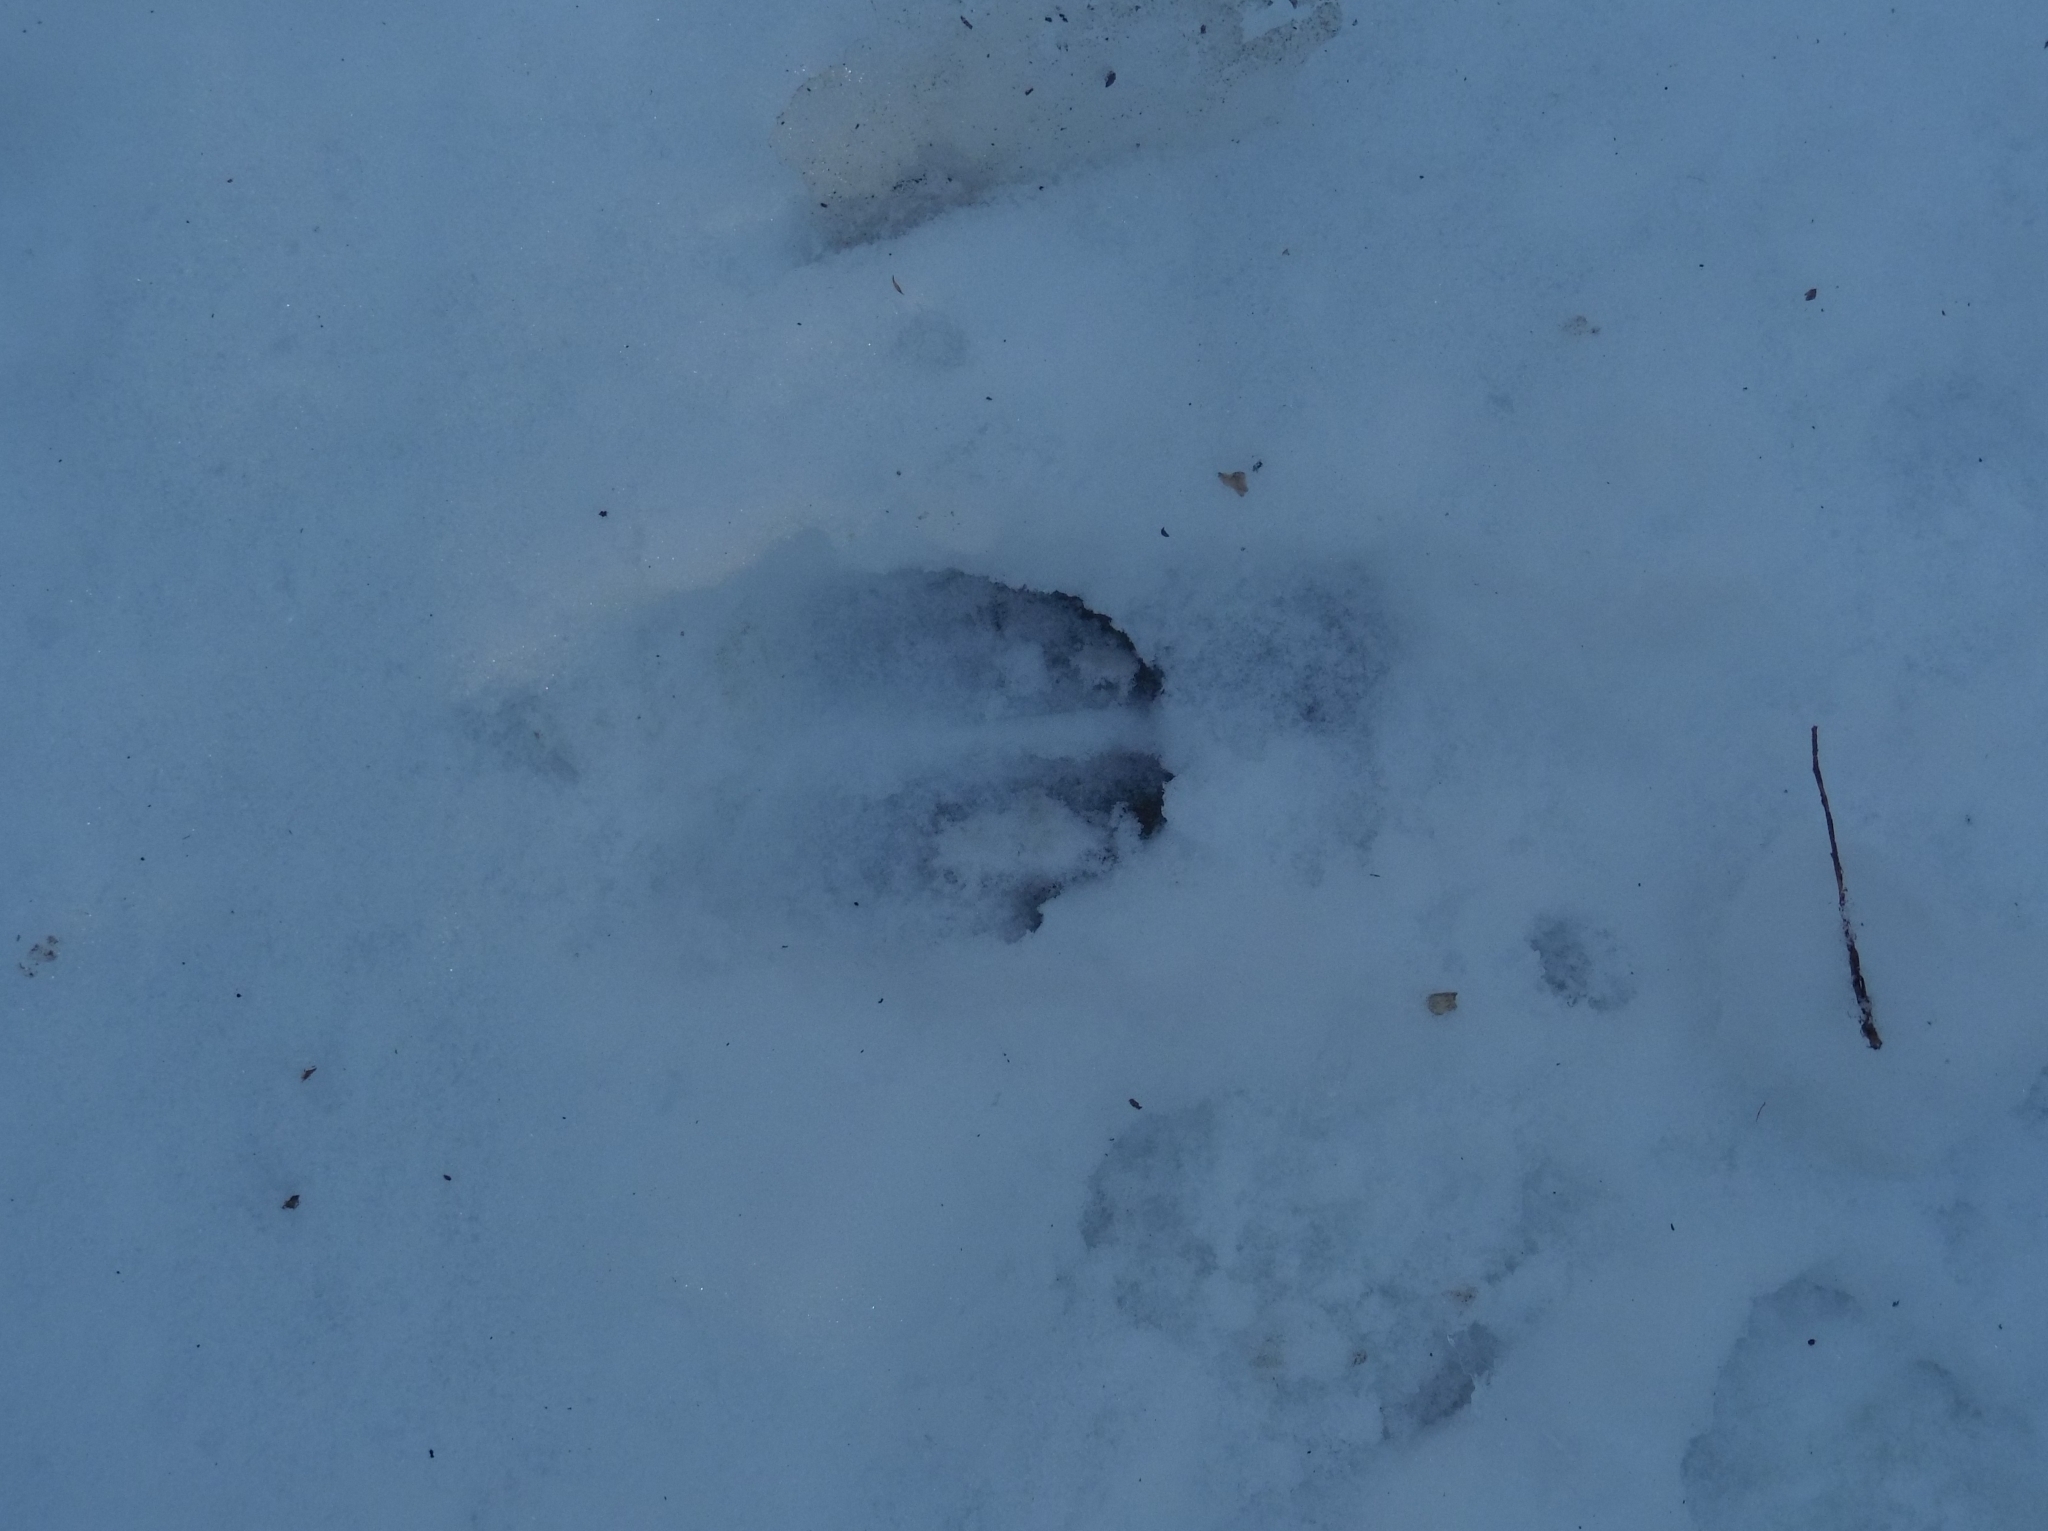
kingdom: Animalia
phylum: Chordata
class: Mammalia
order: Artiodactyla
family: Cervidae
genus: Odocoileus
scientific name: Odocoileus virginianus
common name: White-tailed deer
